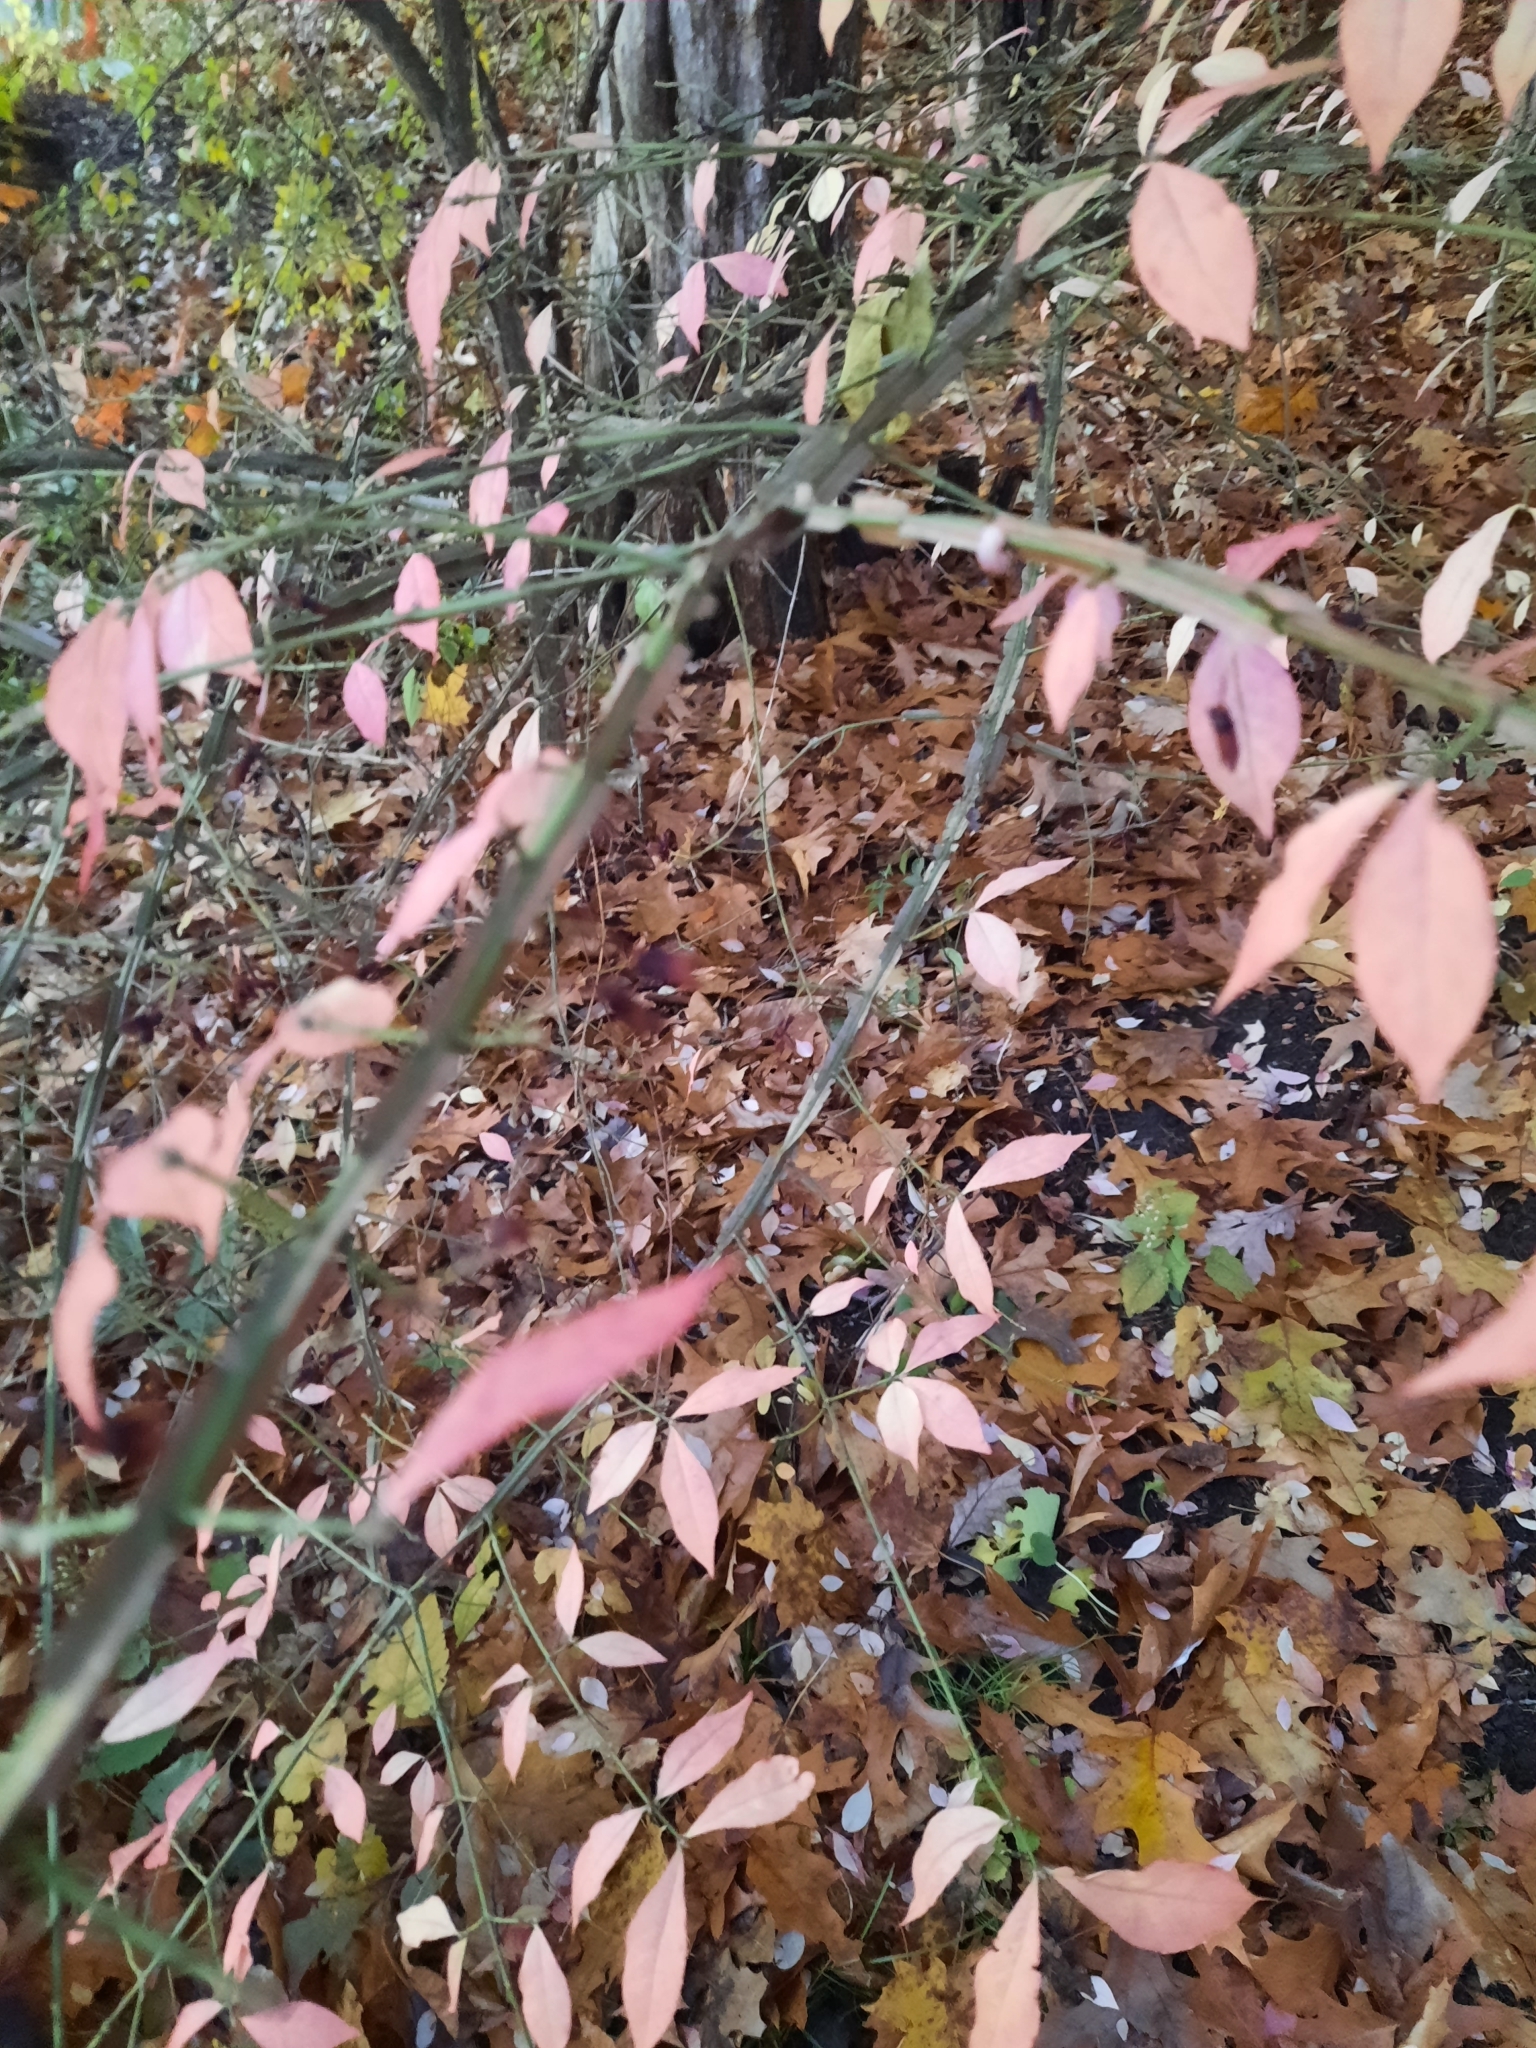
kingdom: Plantae
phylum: Tracheophyta
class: Magnoliopsida
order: Celastrales
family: Celastraceae
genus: Euonymus
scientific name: Euonymus alatus
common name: Winged euonymus
